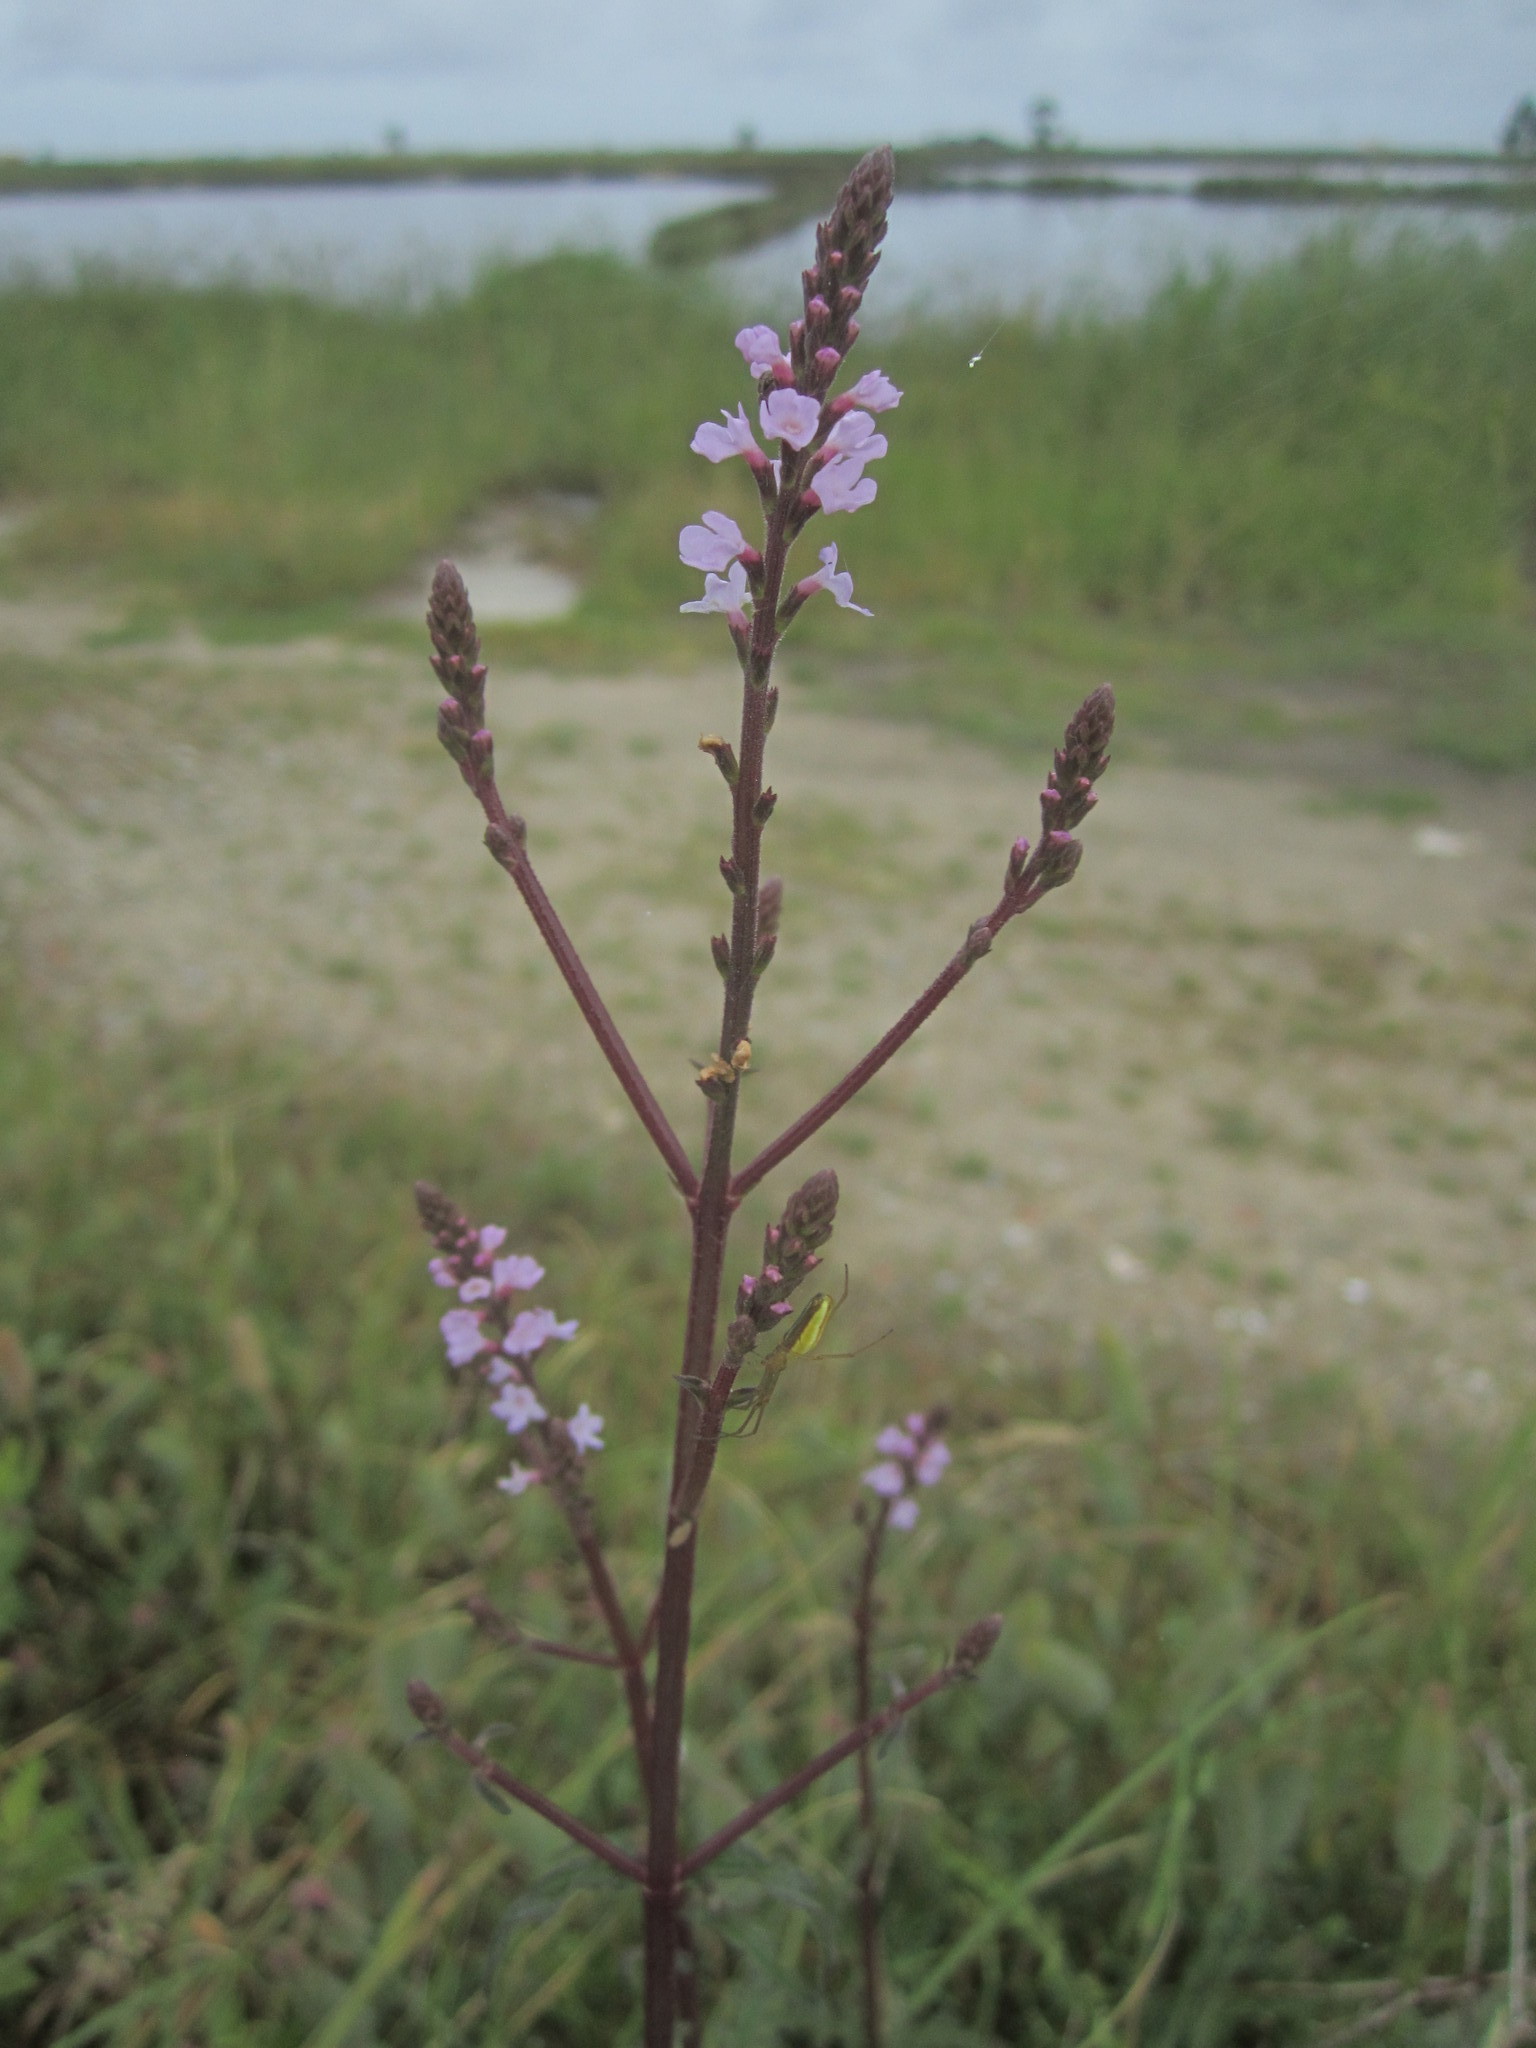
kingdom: Plantae
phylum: Tracheophyta
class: Magnoliopsida
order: Lamiales
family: Verbenaceae
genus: Verbena
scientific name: Verbena officinalis
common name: Vervain
